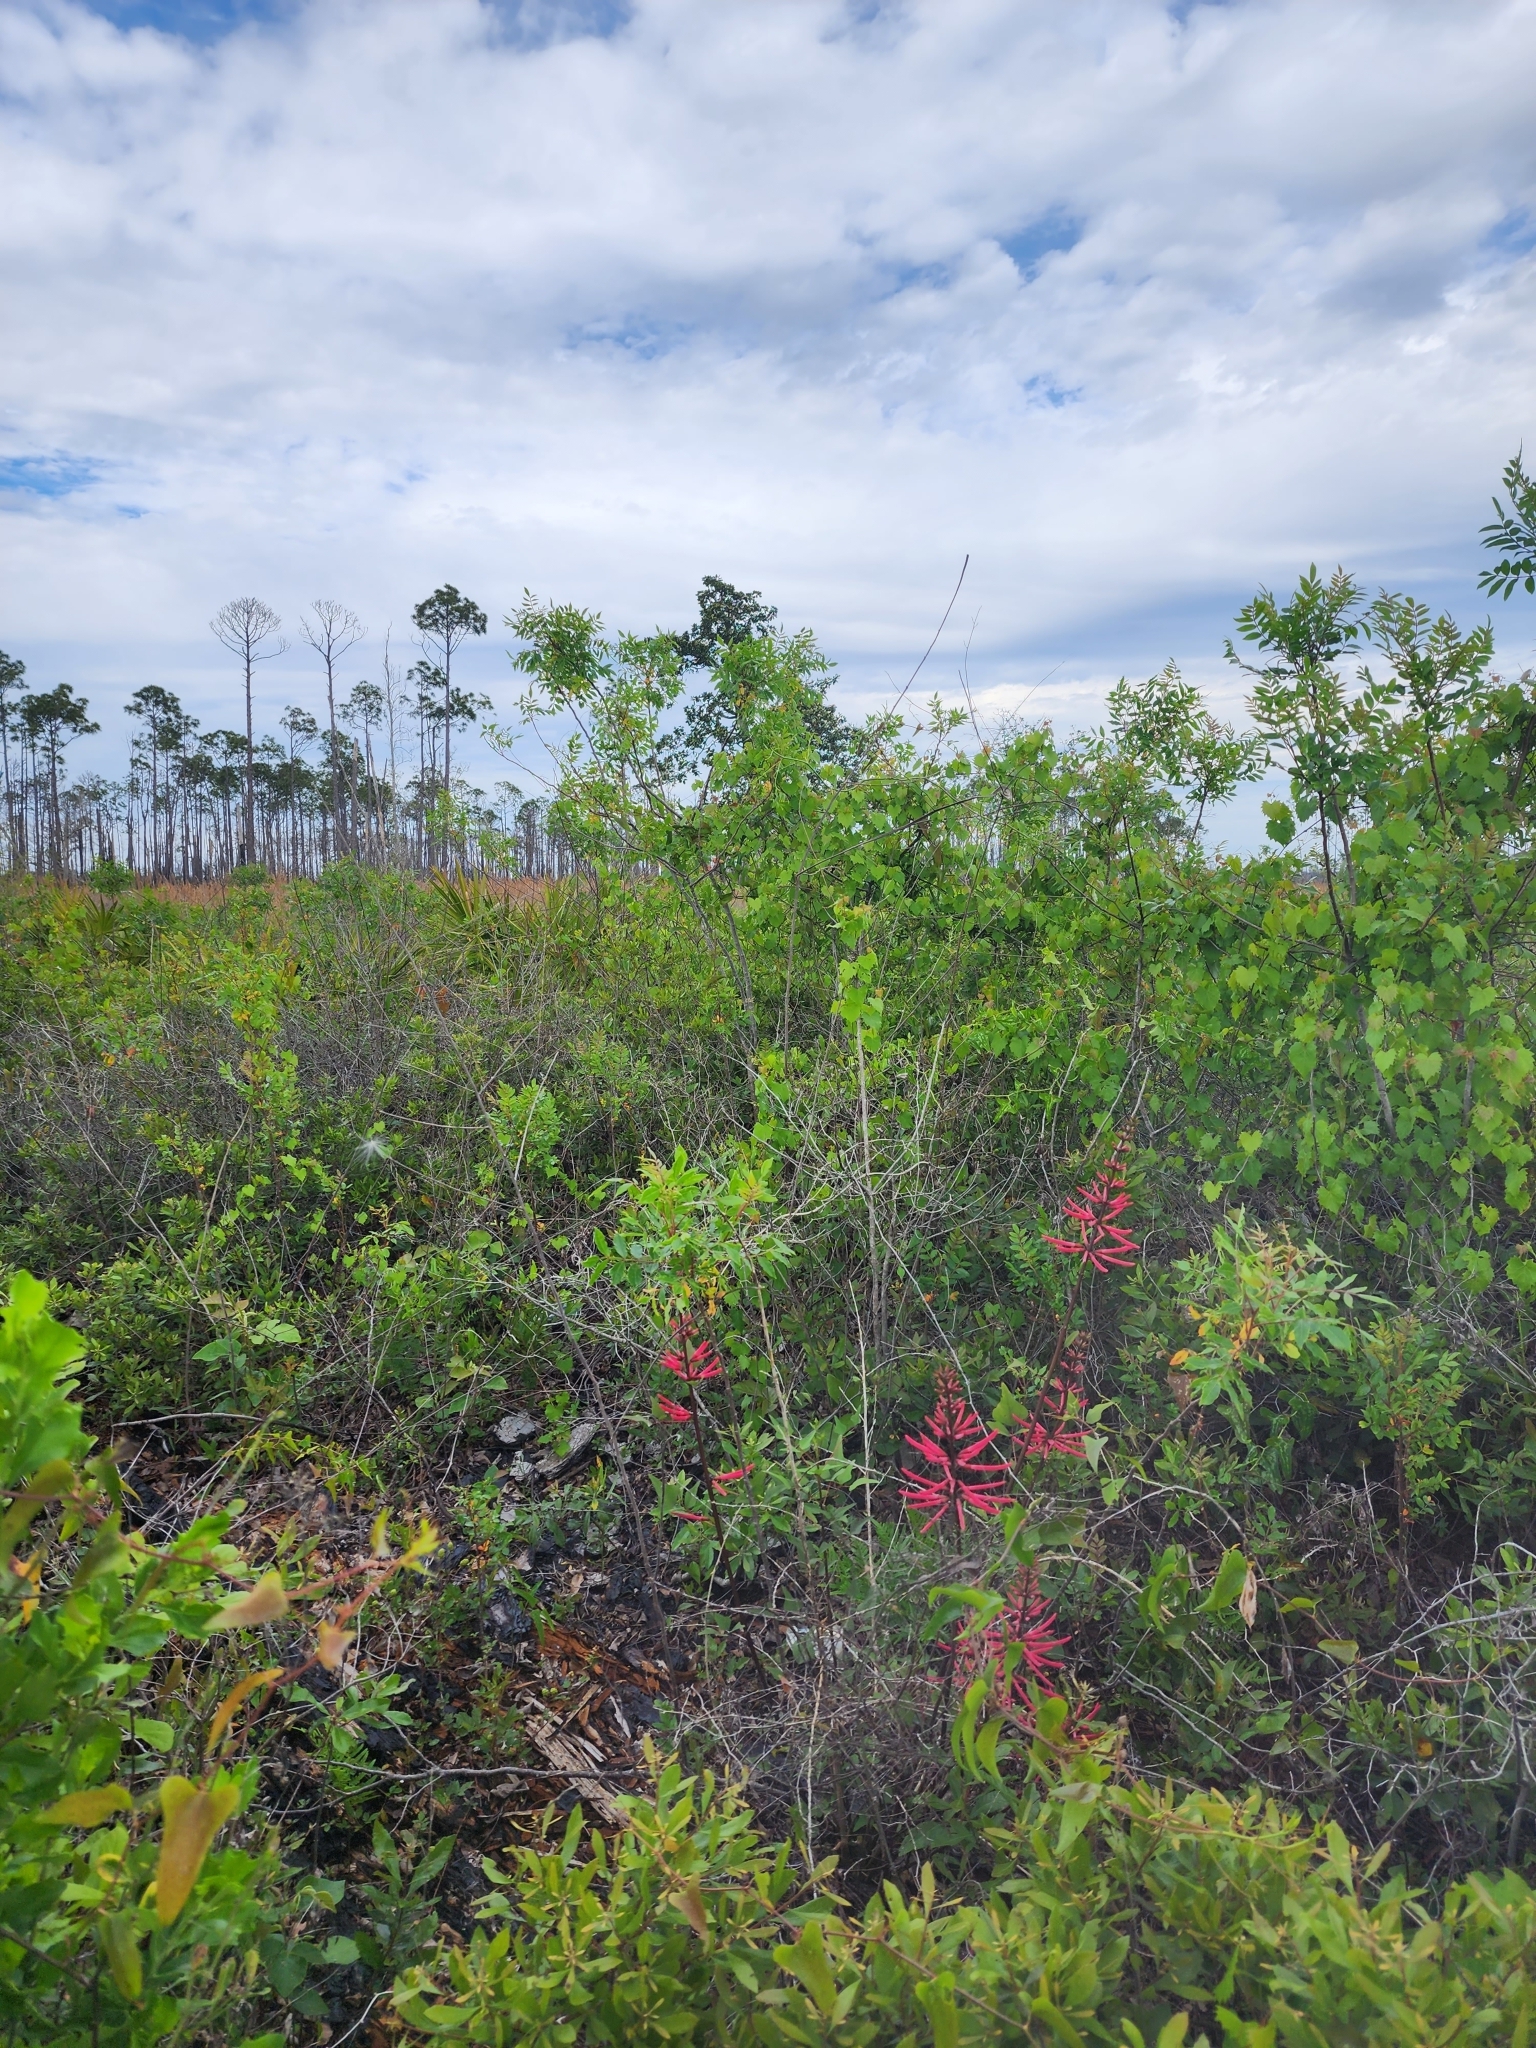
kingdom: Plantae
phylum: Tracheophyta
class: Magnoliopsida
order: Fabales
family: Fabaceae
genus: Erythrina
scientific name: Erythrina herbacea
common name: Coral-bean
